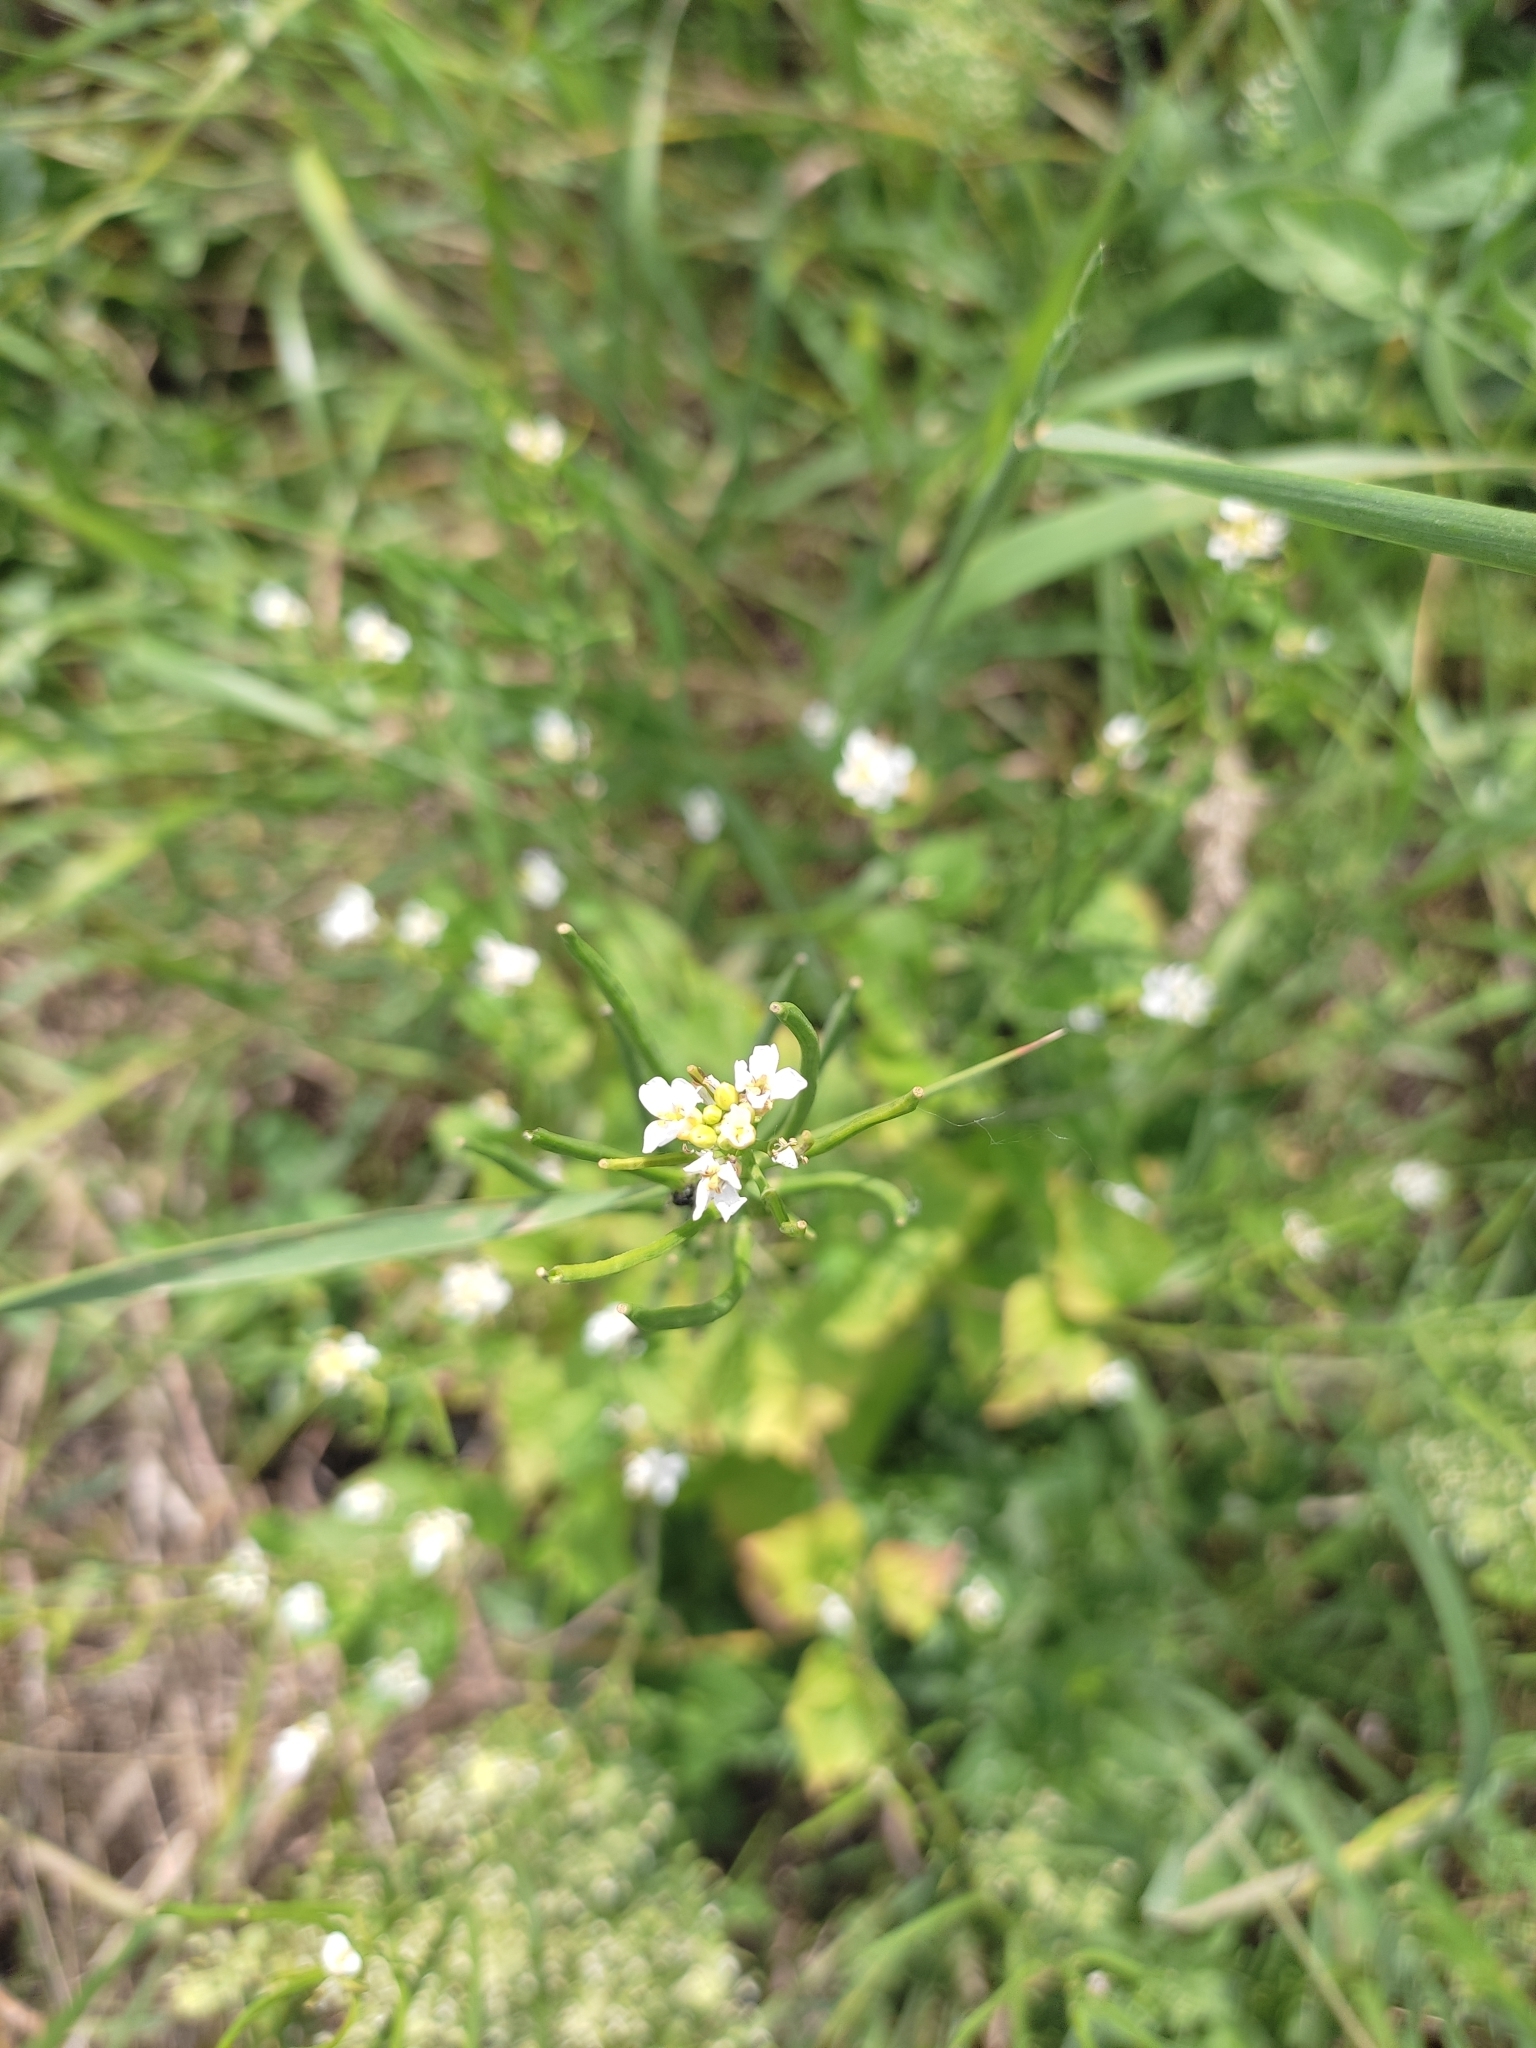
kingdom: Plantae
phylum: Tracheophyta
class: Magnoliopsida
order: Brassicales
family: Brassicaceae
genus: Alliaria
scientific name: Alliaria petiolata
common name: Garlic mustard
